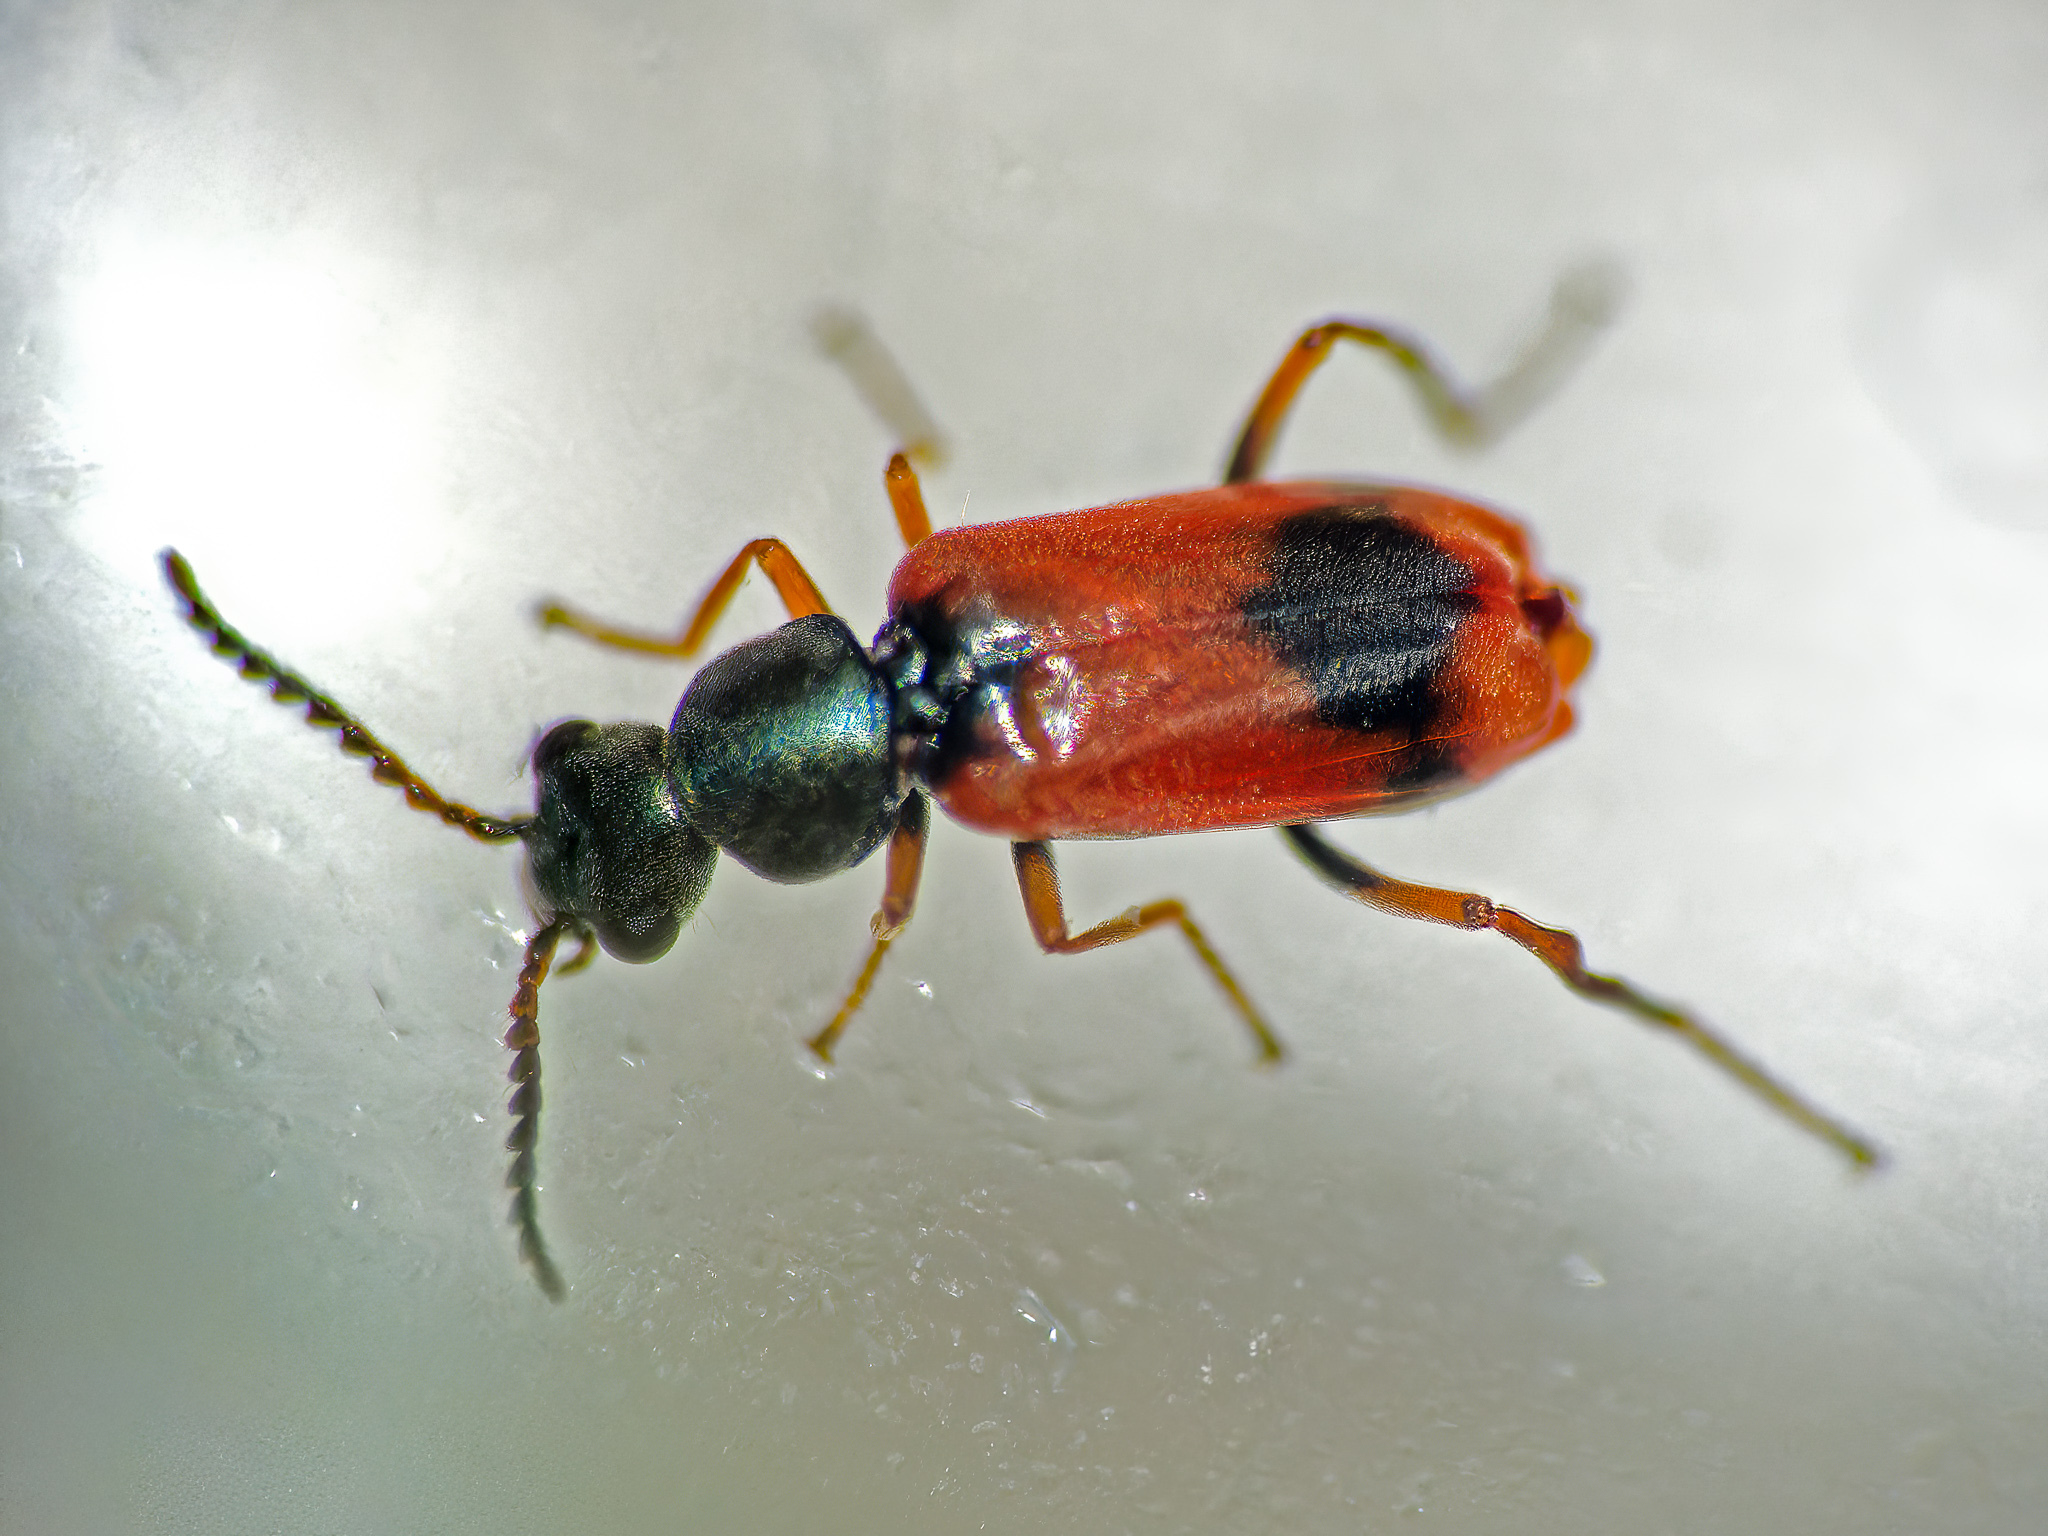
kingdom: Animalia
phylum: Arthropoda
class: Insecta
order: Coleoptera
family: Melyridae
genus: Anthocomus
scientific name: Anthocomus equestris
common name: Black-banded soft-winged flower beetle
